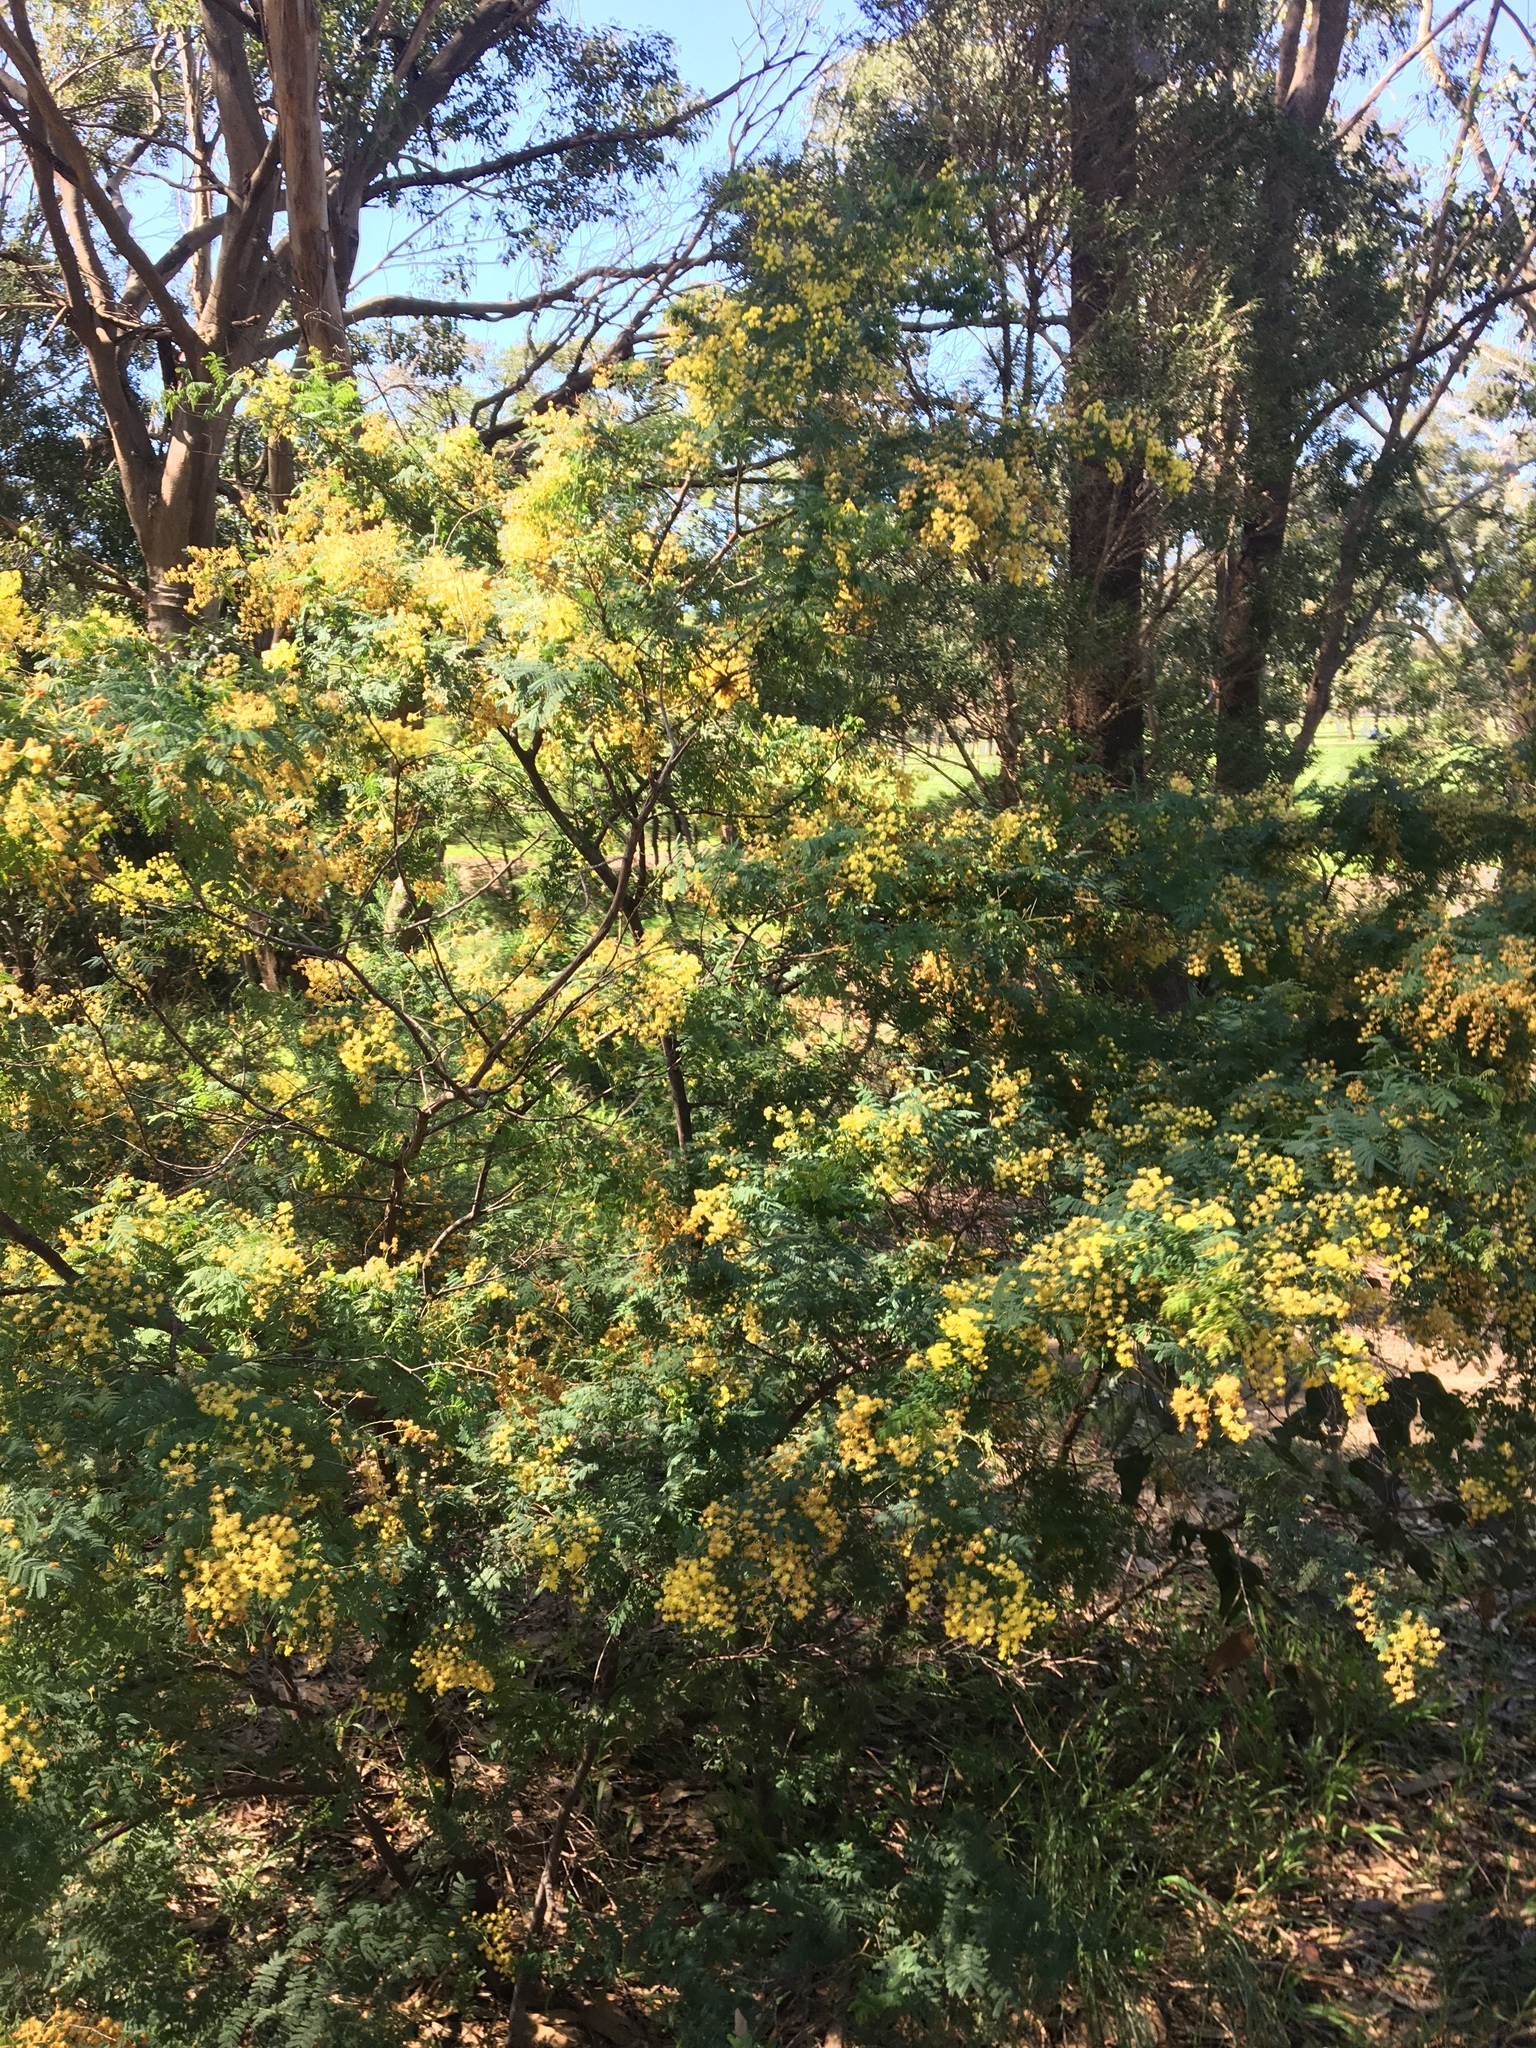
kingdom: Plantae
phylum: Tracheophyta
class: Magnoliopsida
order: Fabales
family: Fabaceae
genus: Acacia
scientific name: Acacia pubescens
